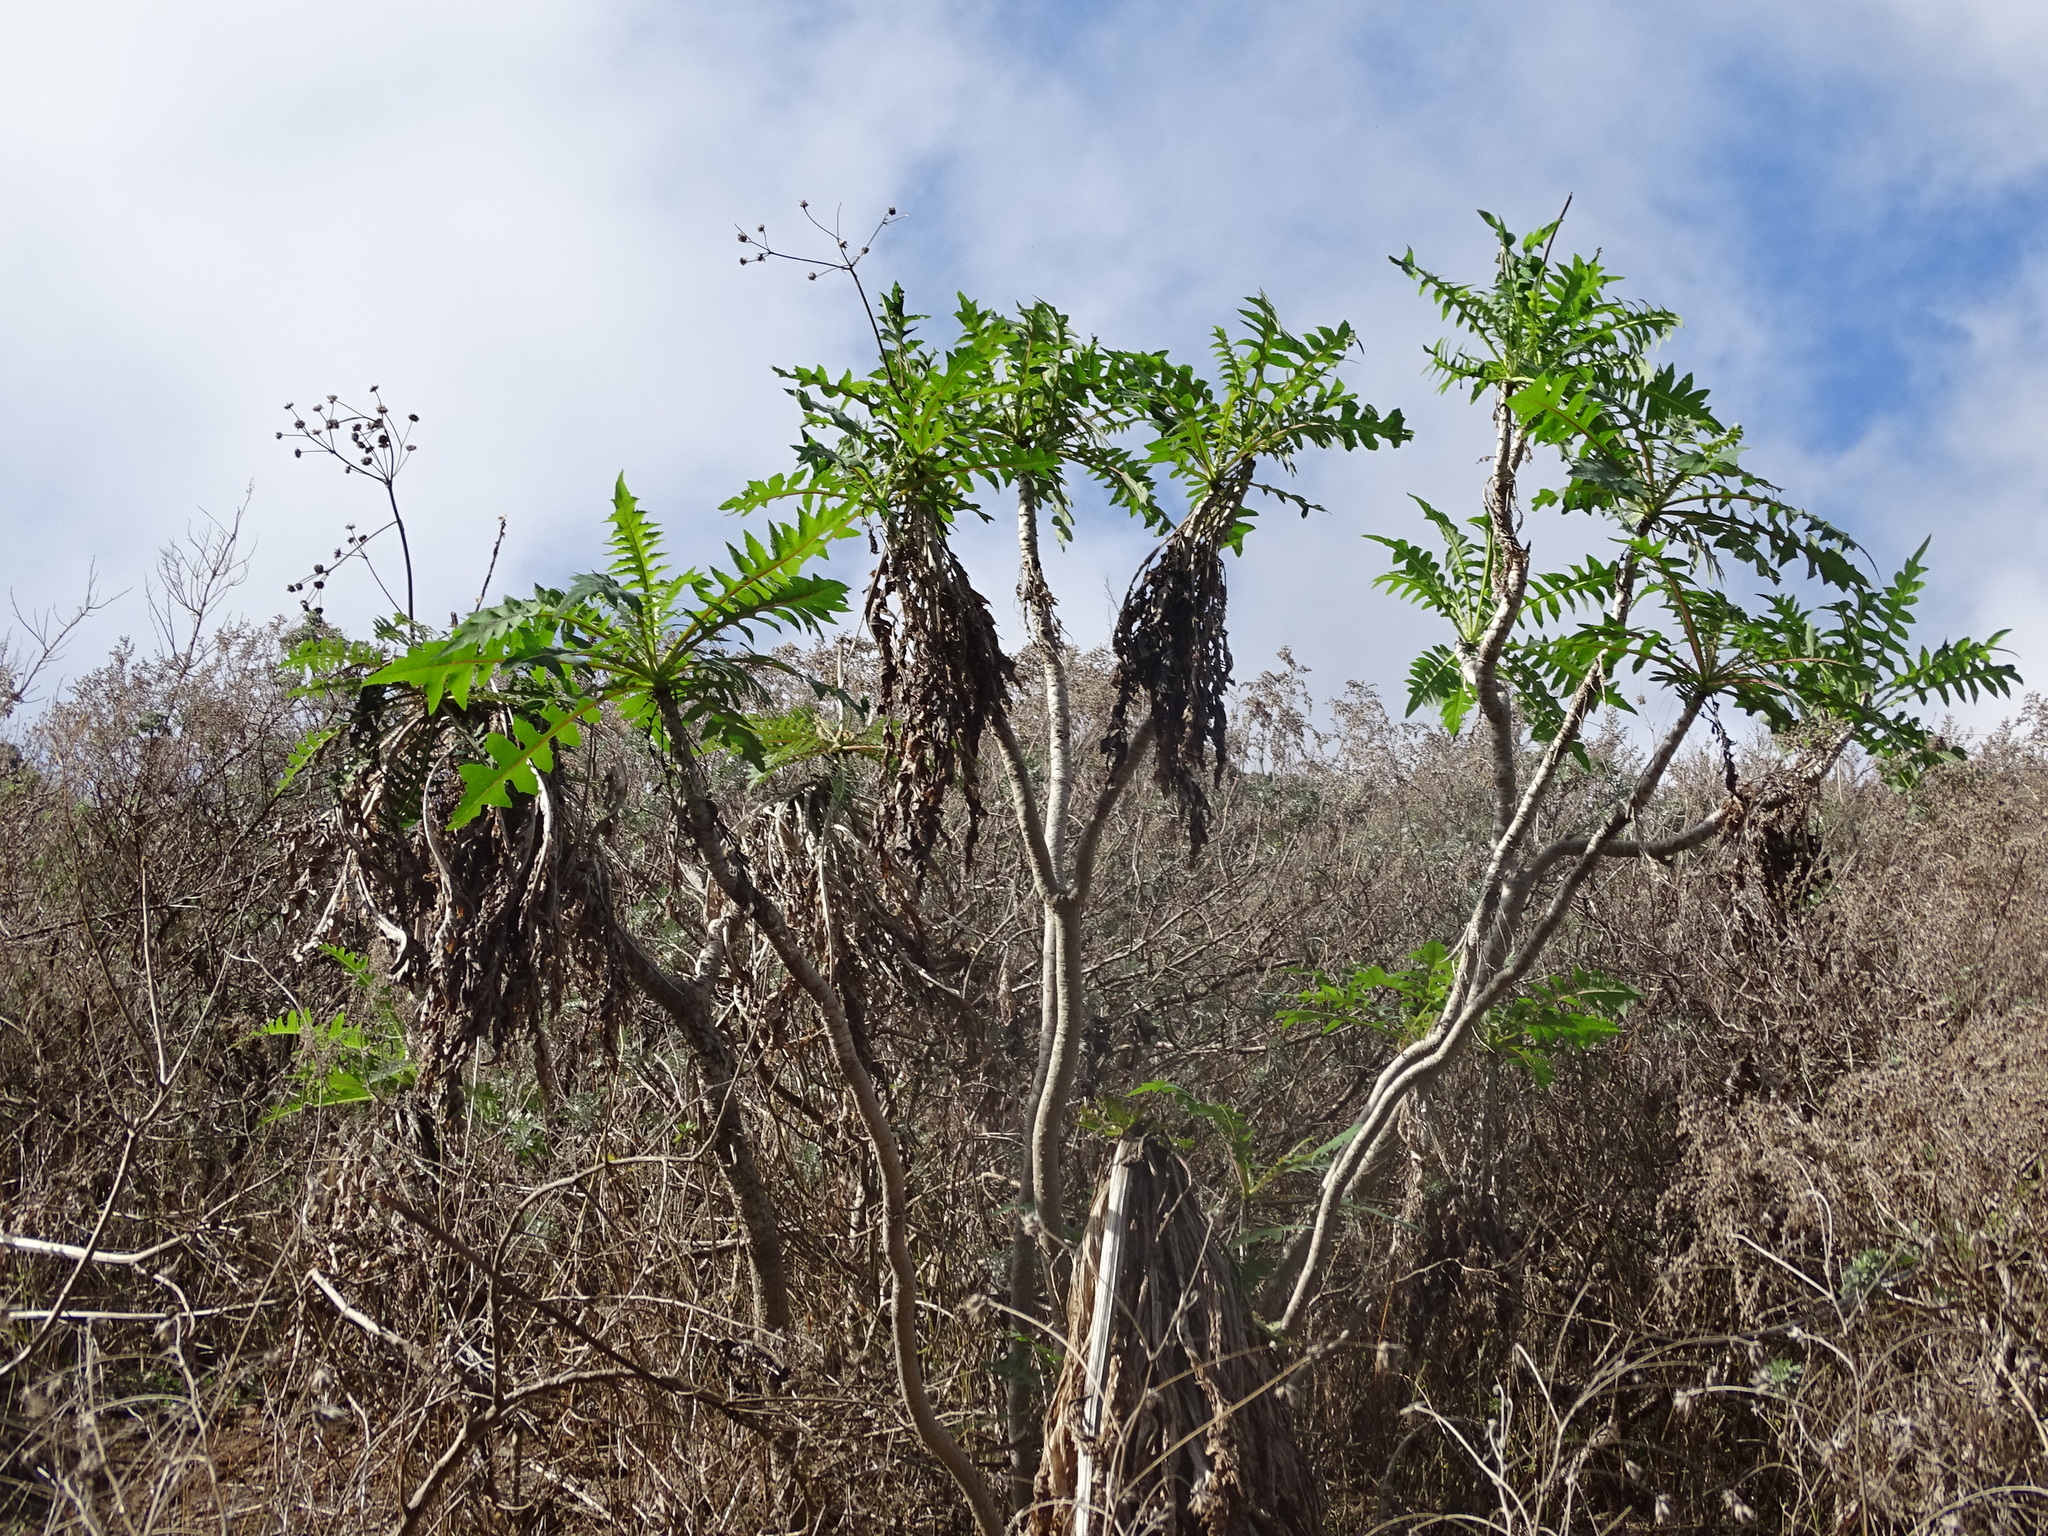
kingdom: Plantae
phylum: Tracheophyta
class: Magnoliopsida
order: Asterales
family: Asteraceae
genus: Sonchus
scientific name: Sonchus congestus
